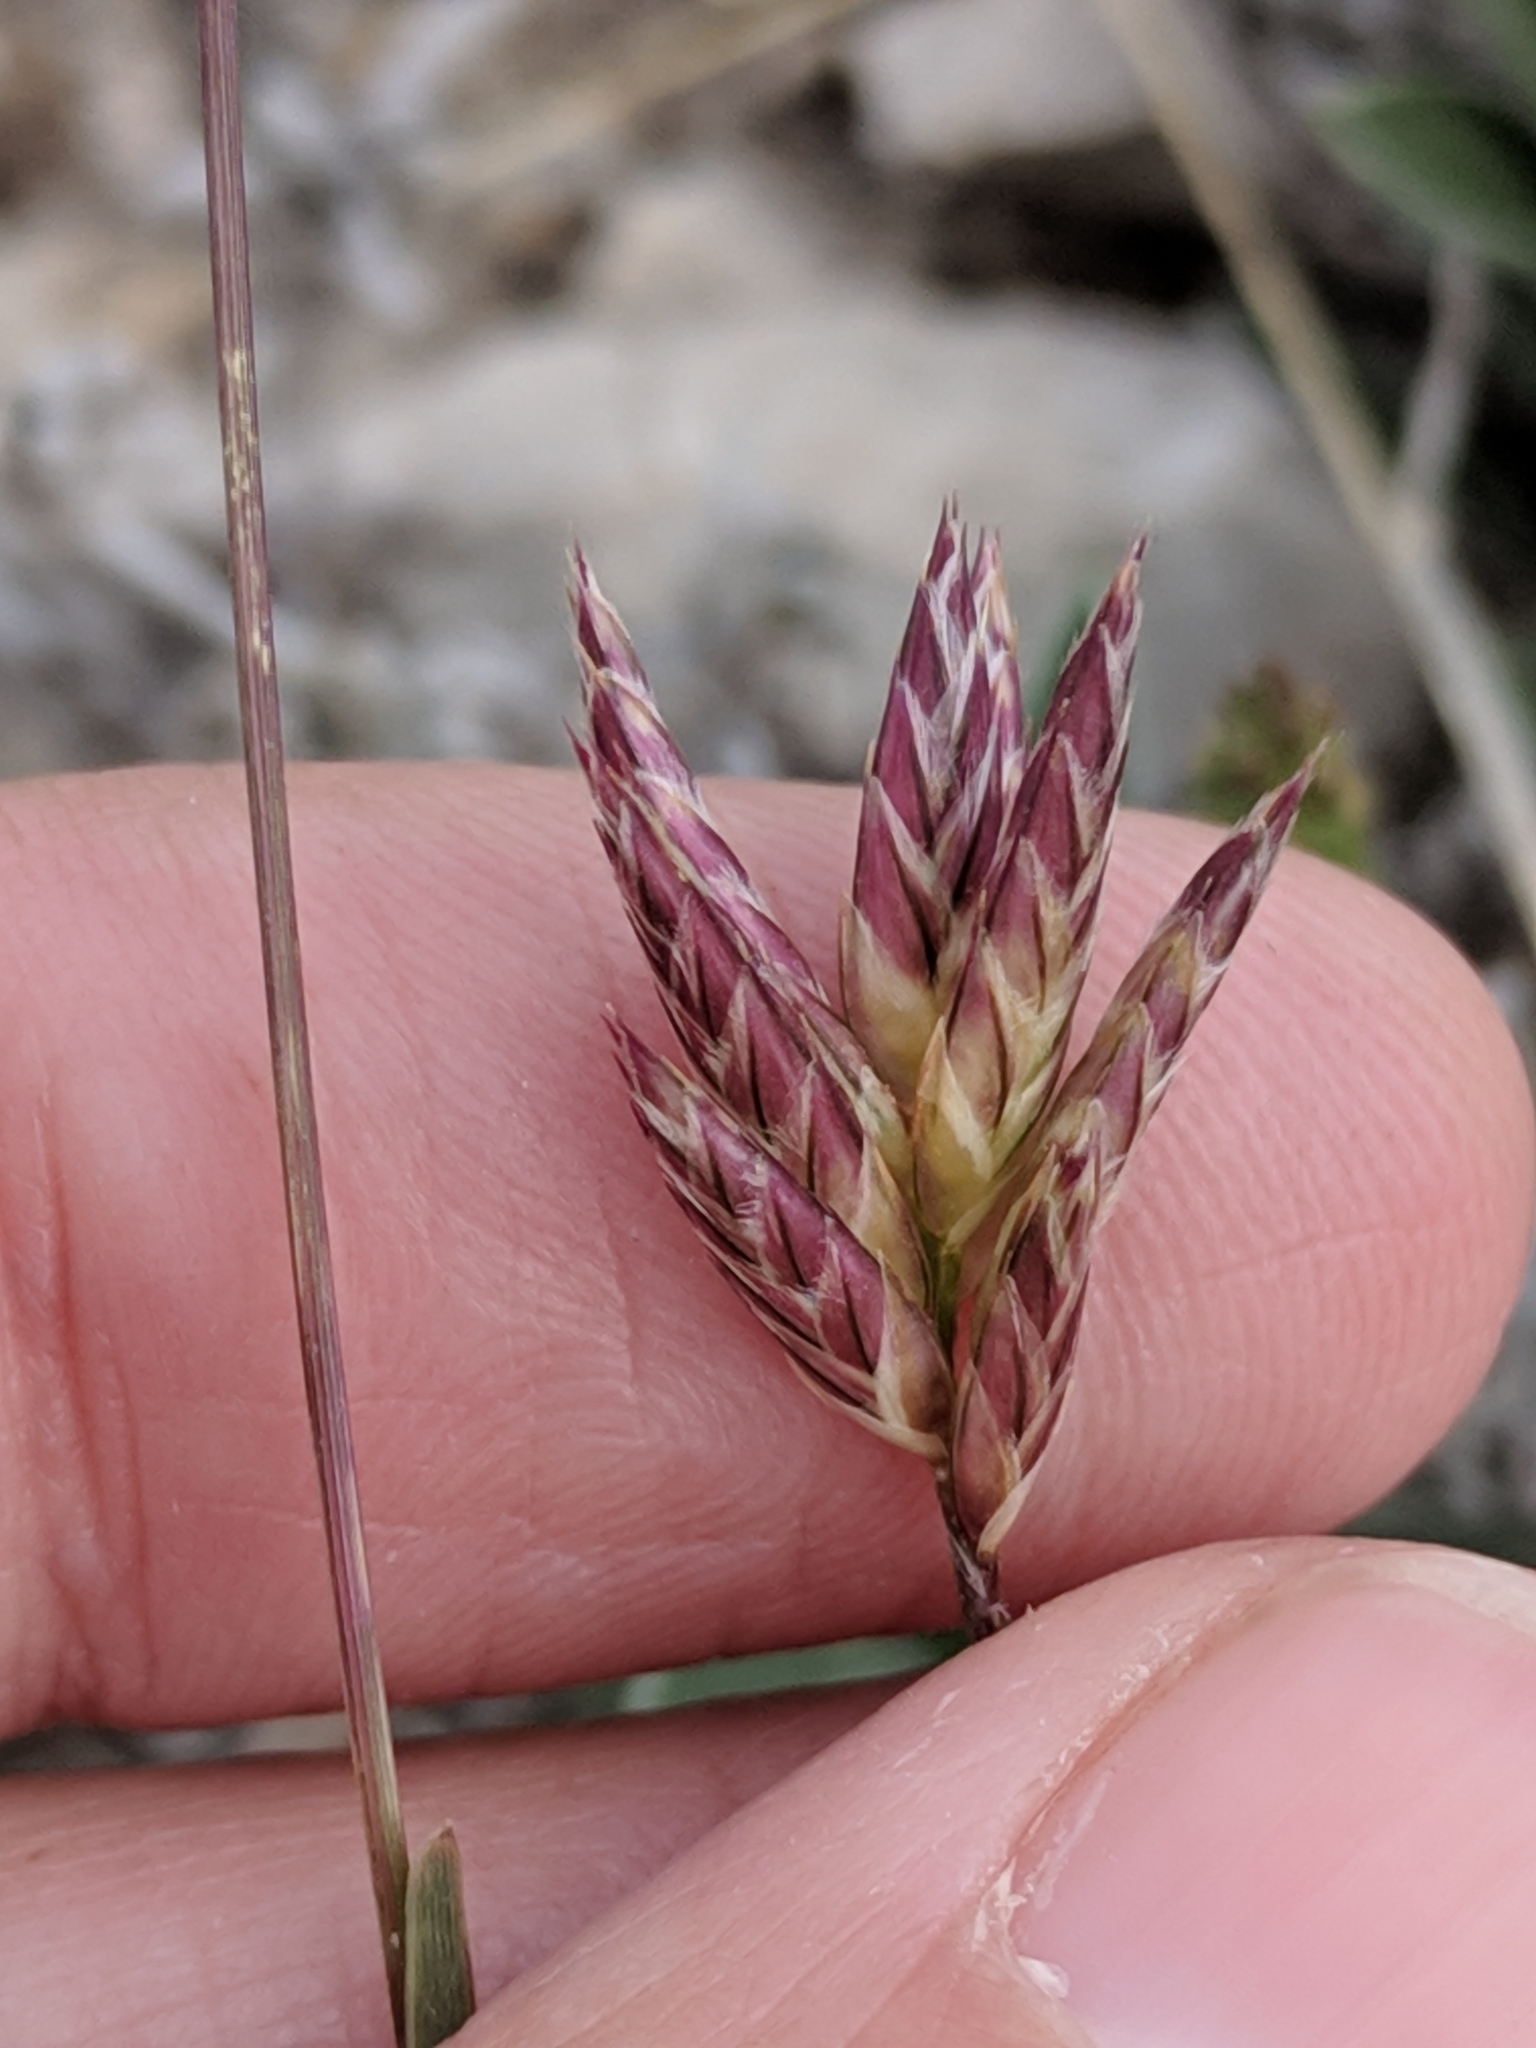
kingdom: Plantae
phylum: Tracheophyta
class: Liliopsida
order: Poales
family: Poaceae
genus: Erioneuron
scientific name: Erioneuron pilosum
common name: Hairy woolly grass
